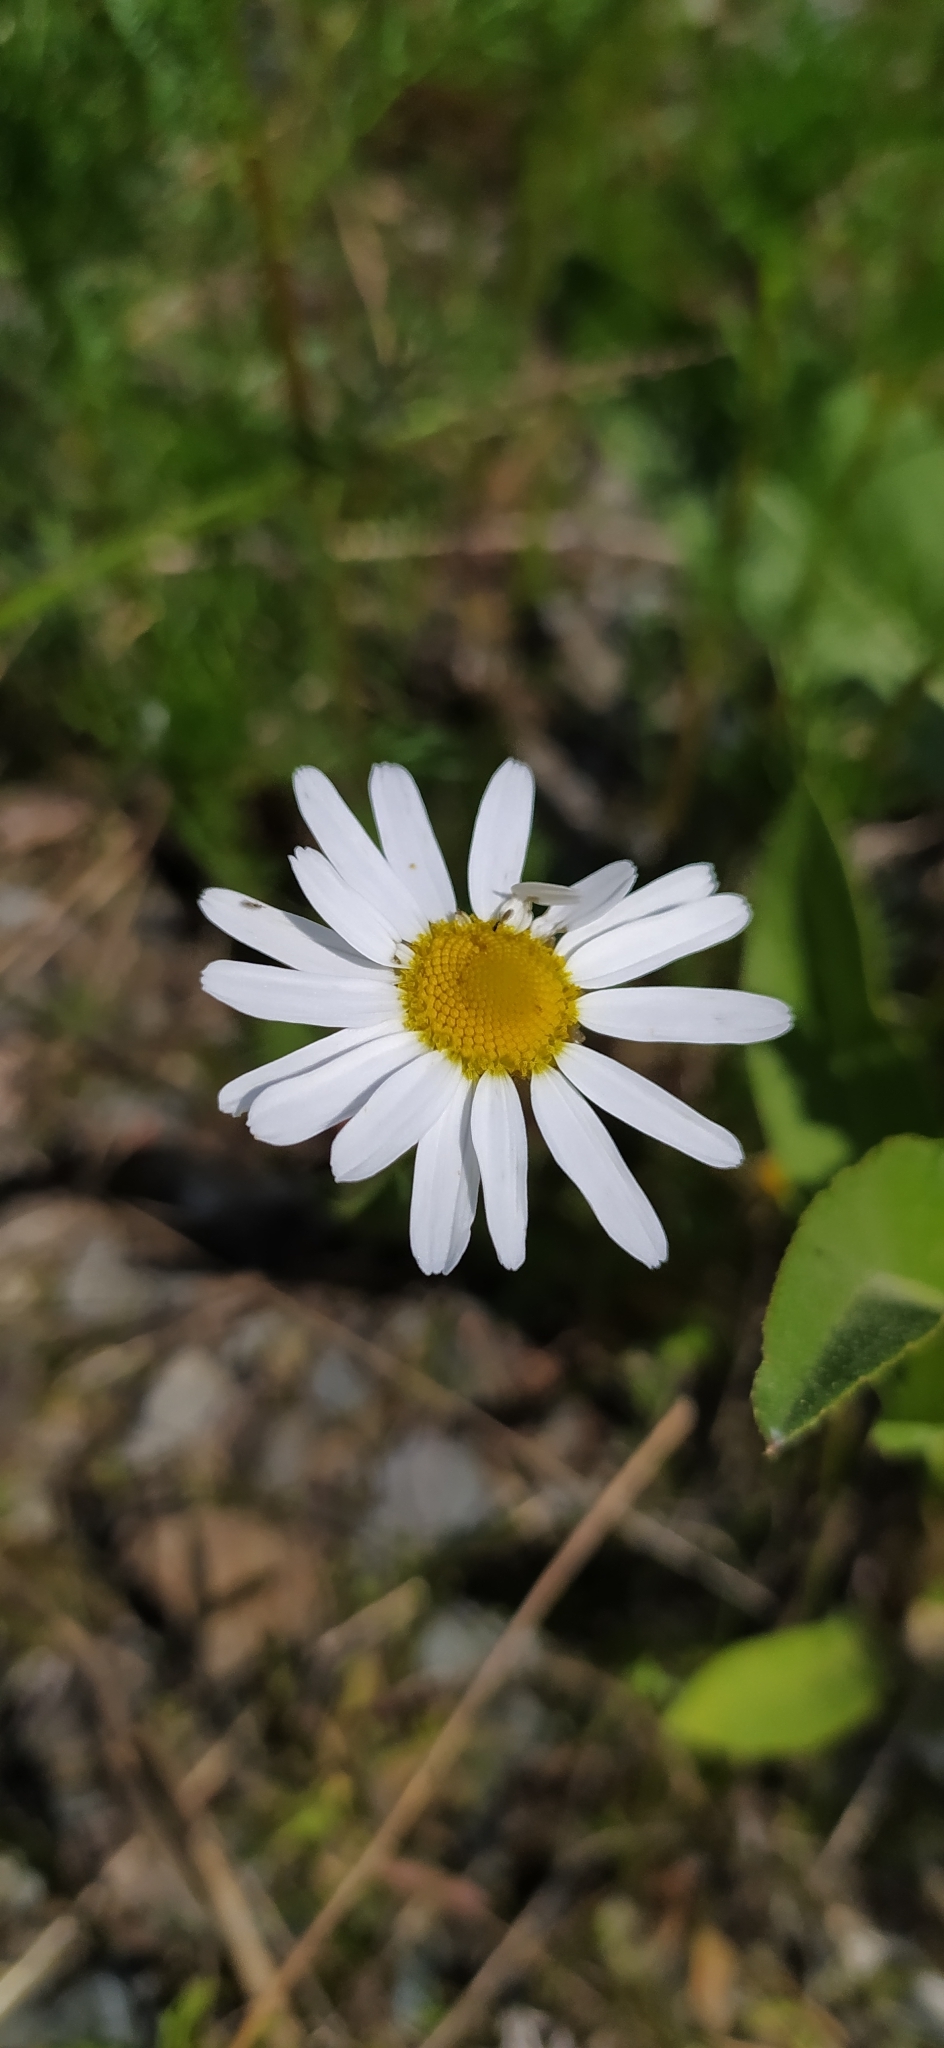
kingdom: Plantae
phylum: Tracheophyta
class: Magnoliopsida
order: Asterales
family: Asteraceae
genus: Tripleurospermum
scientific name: Tripleurospermum inodorum
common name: Scentless mayweed
